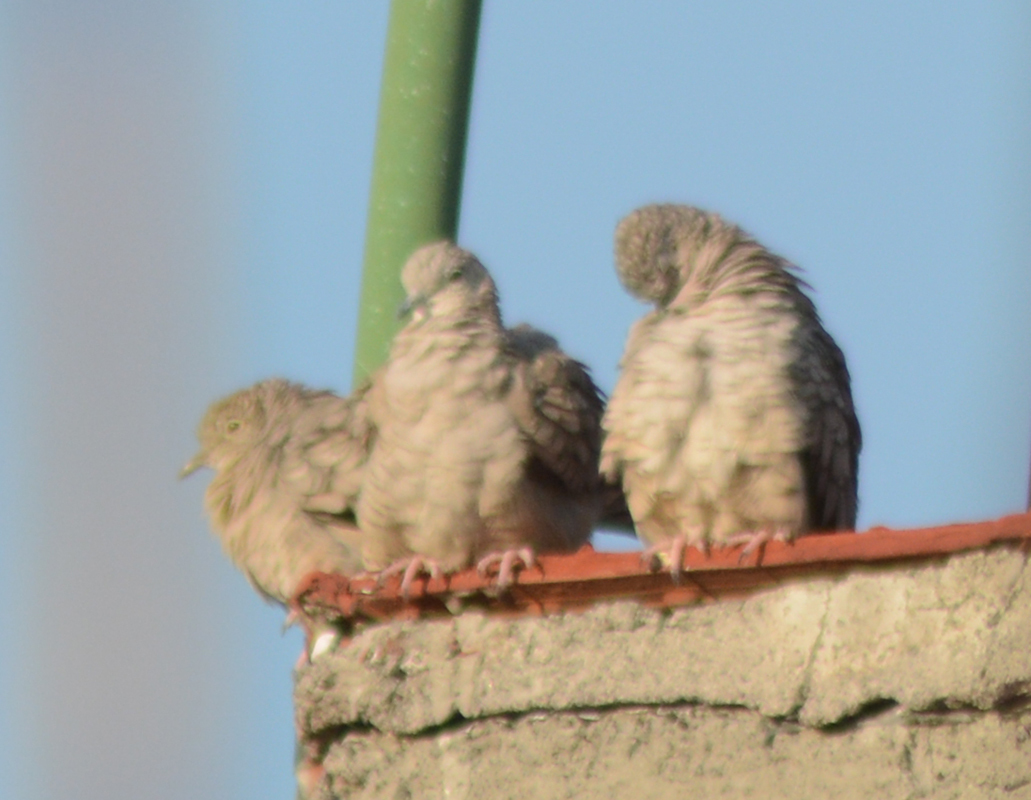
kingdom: Animalia
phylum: Chordata
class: Aves
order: Columbiformes
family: Columbidae
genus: Columbina
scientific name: Columbina inca
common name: Inca dove
